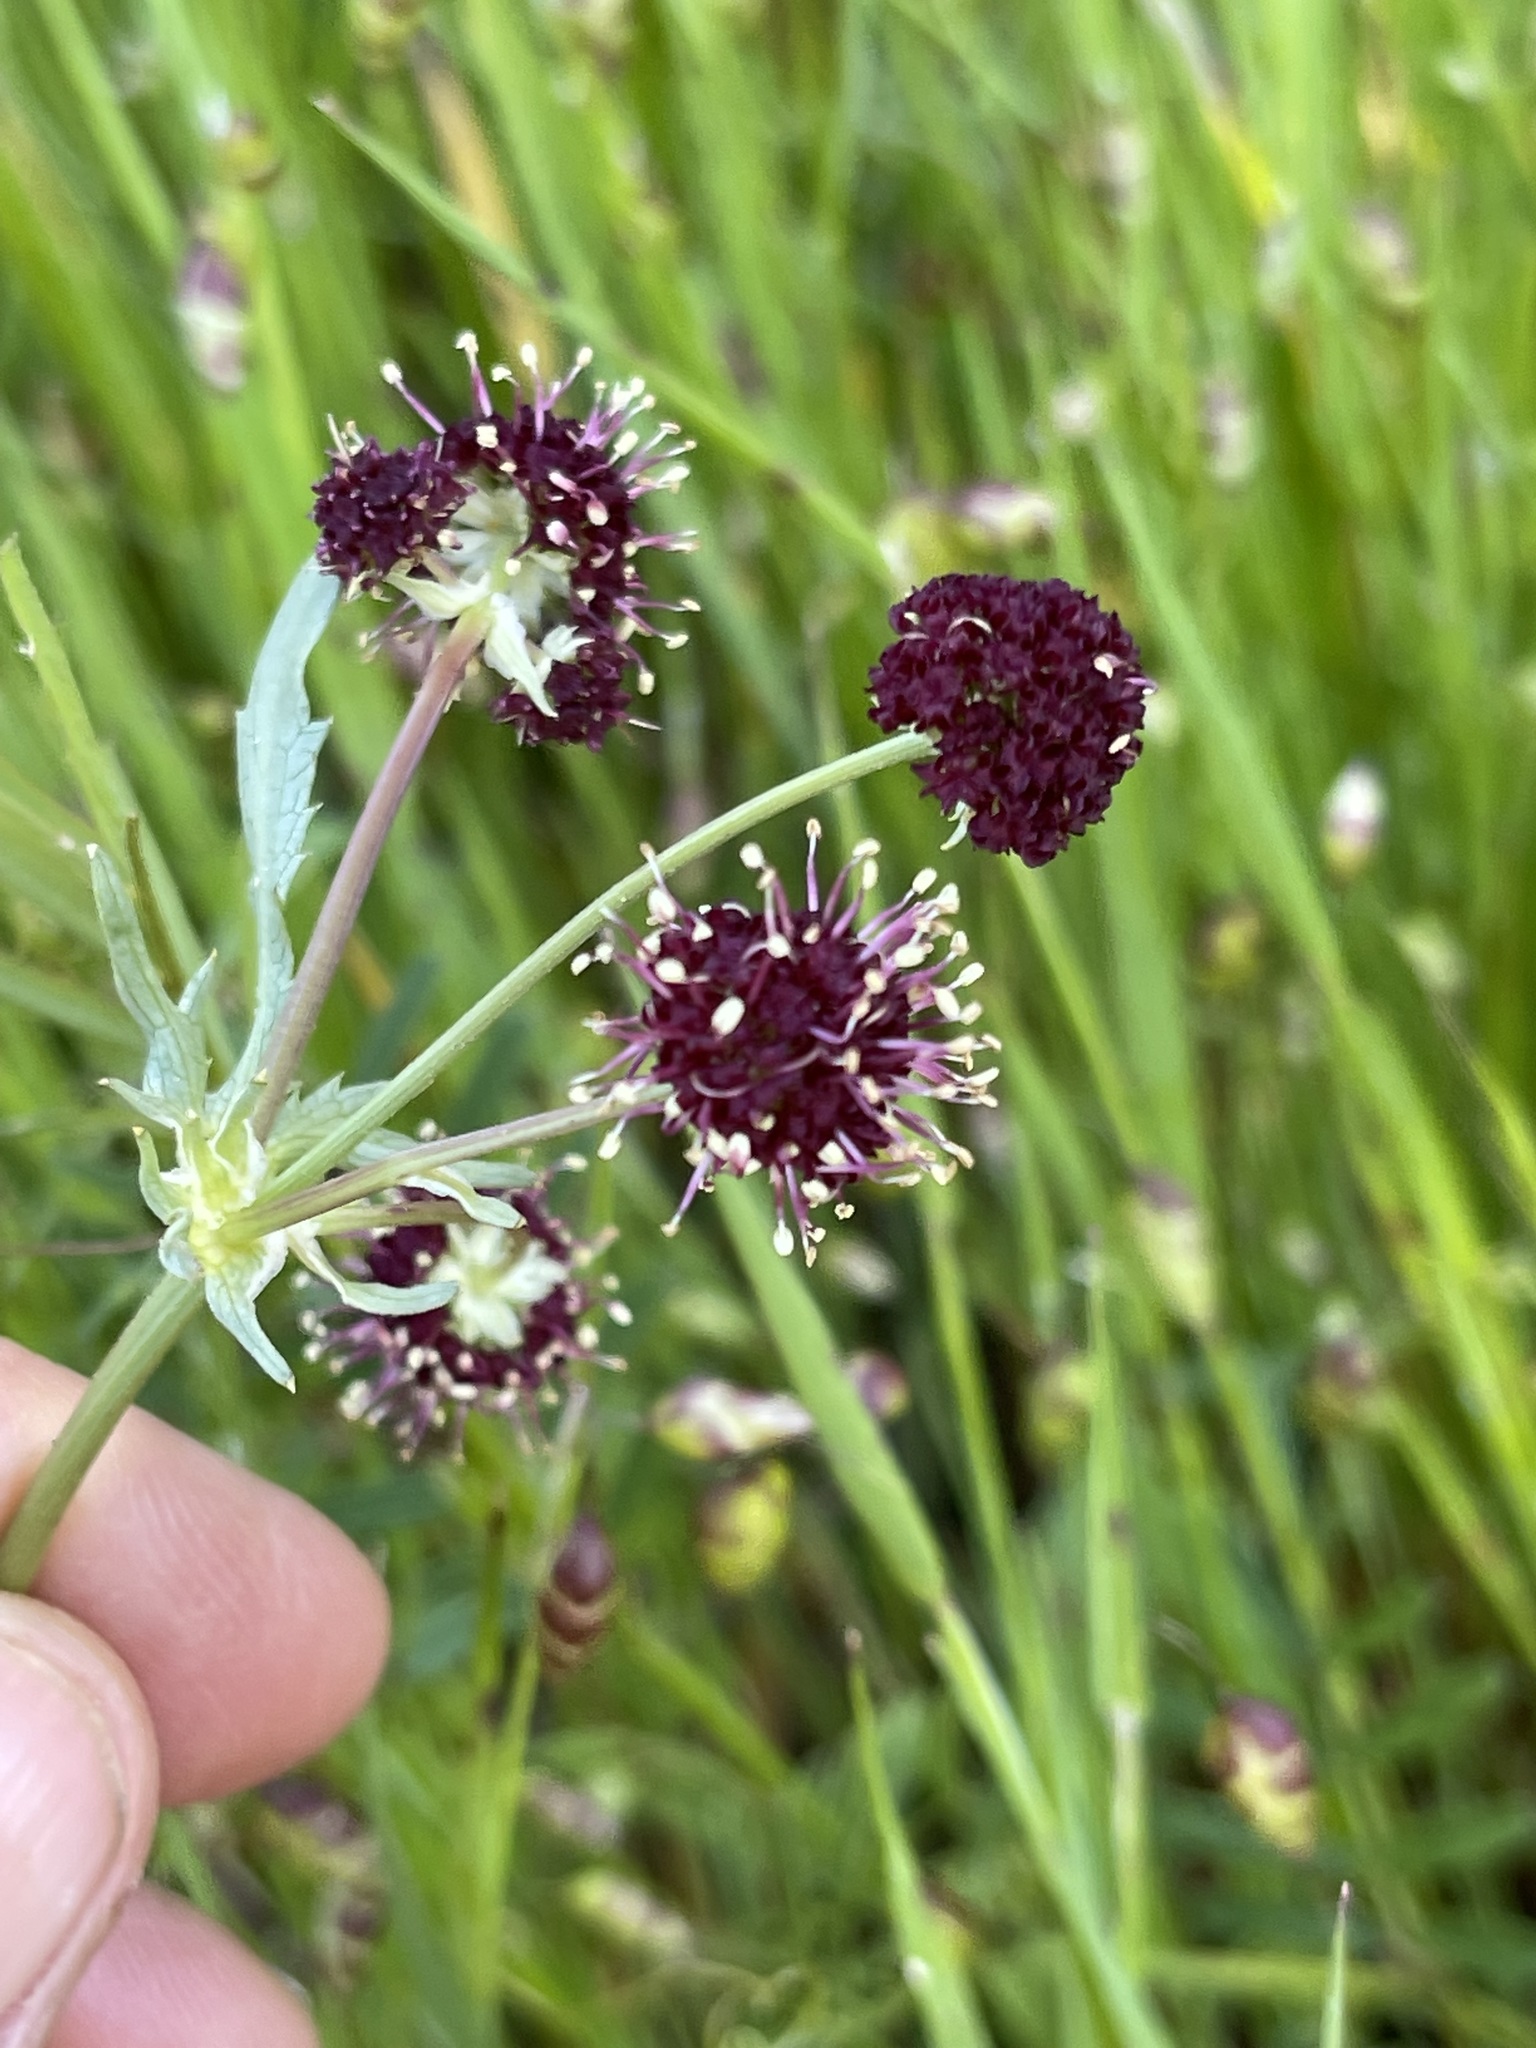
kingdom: Plantae
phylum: Tracheophyta
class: Magnoliopsida
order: Apiales
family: Apiaceae
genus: Sanicula
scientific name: Sanicula bipinnatifida
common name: Shoe-buttons
